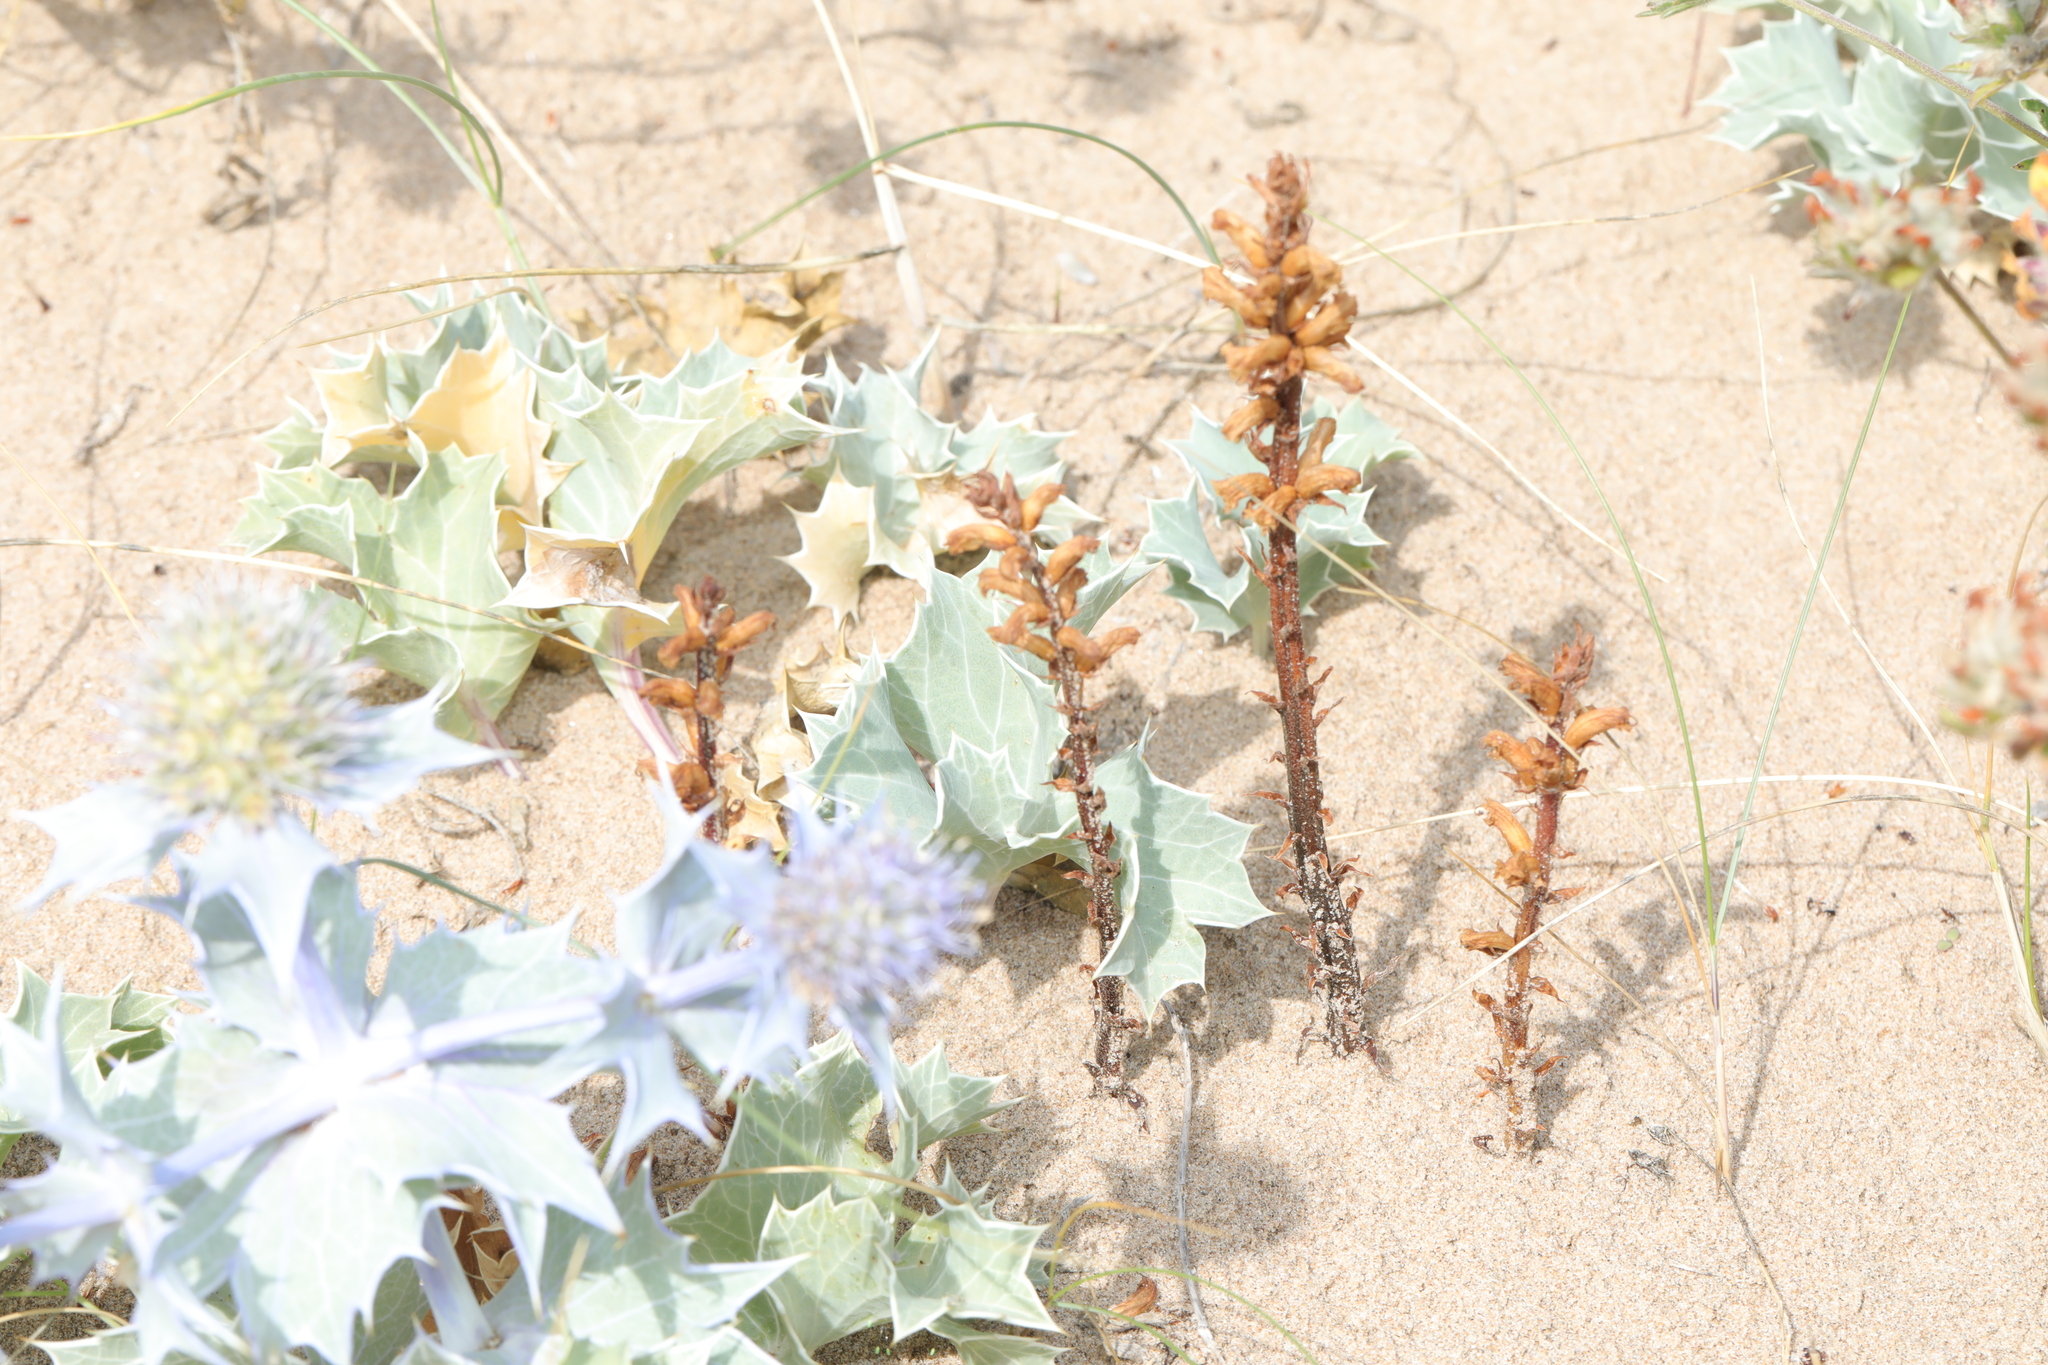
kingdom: Plantae
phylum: Tracheophyta
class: Magnoliopsida
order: Lamiales
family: Orobanchaceae
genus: Orobanche
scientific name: Orobanche minor
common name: Common broomrape
